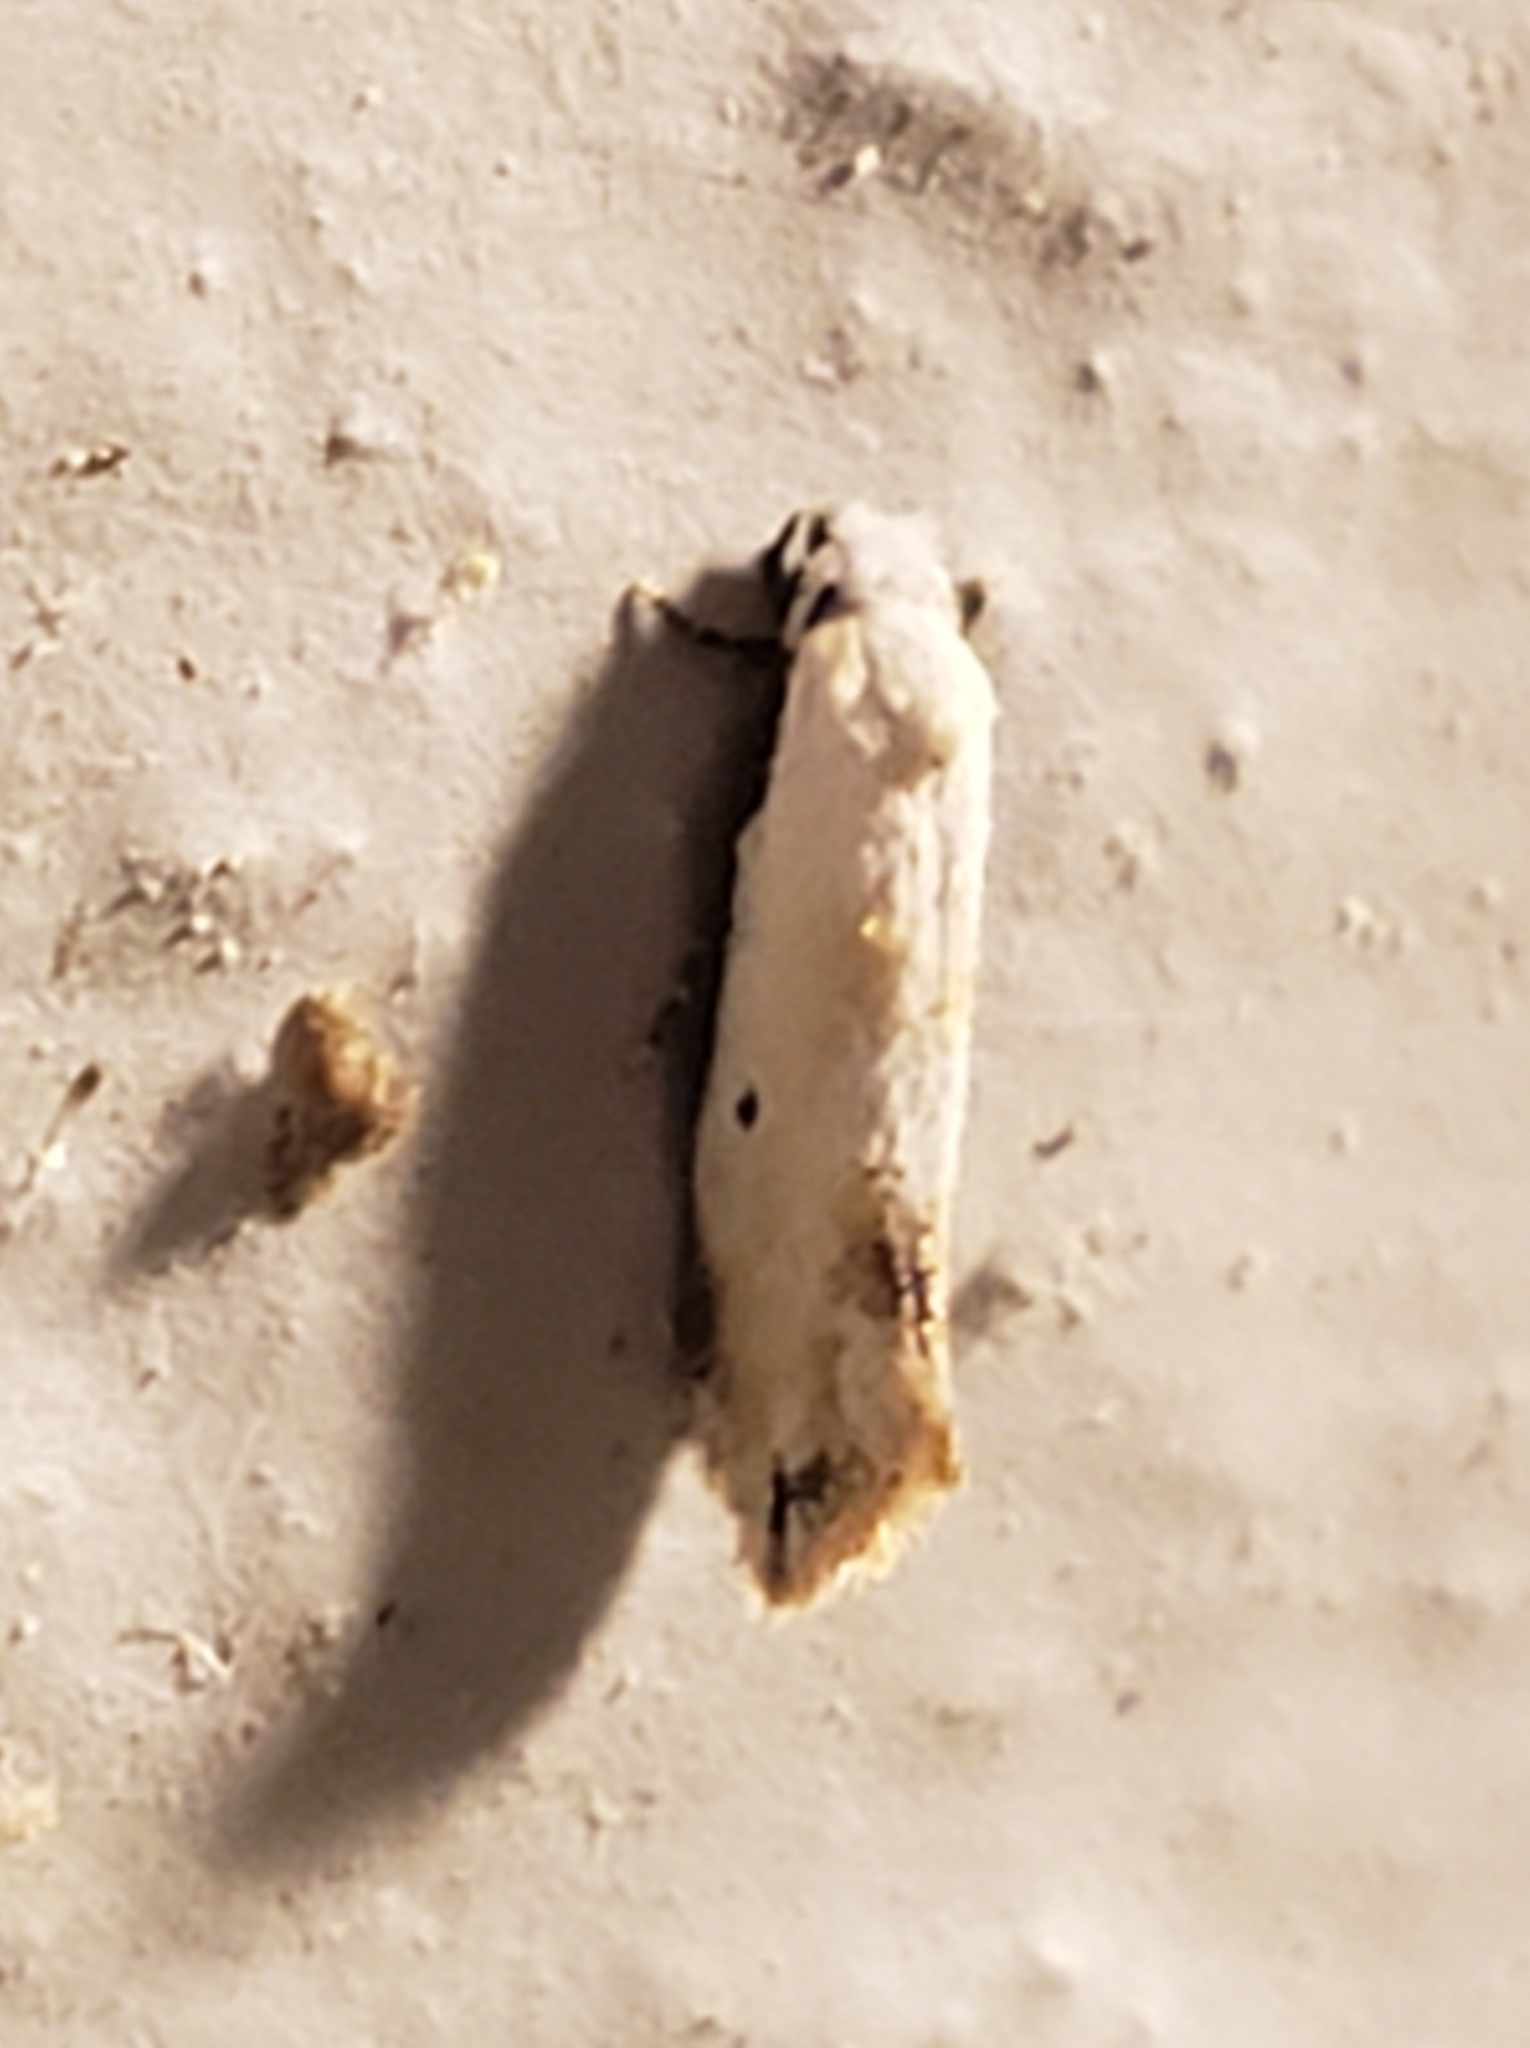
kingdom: Animalia
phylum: Arthropoda
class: Insecta
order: Lepidoptera
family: Meessiidae
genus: Mea
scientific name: Mea skinnerella
